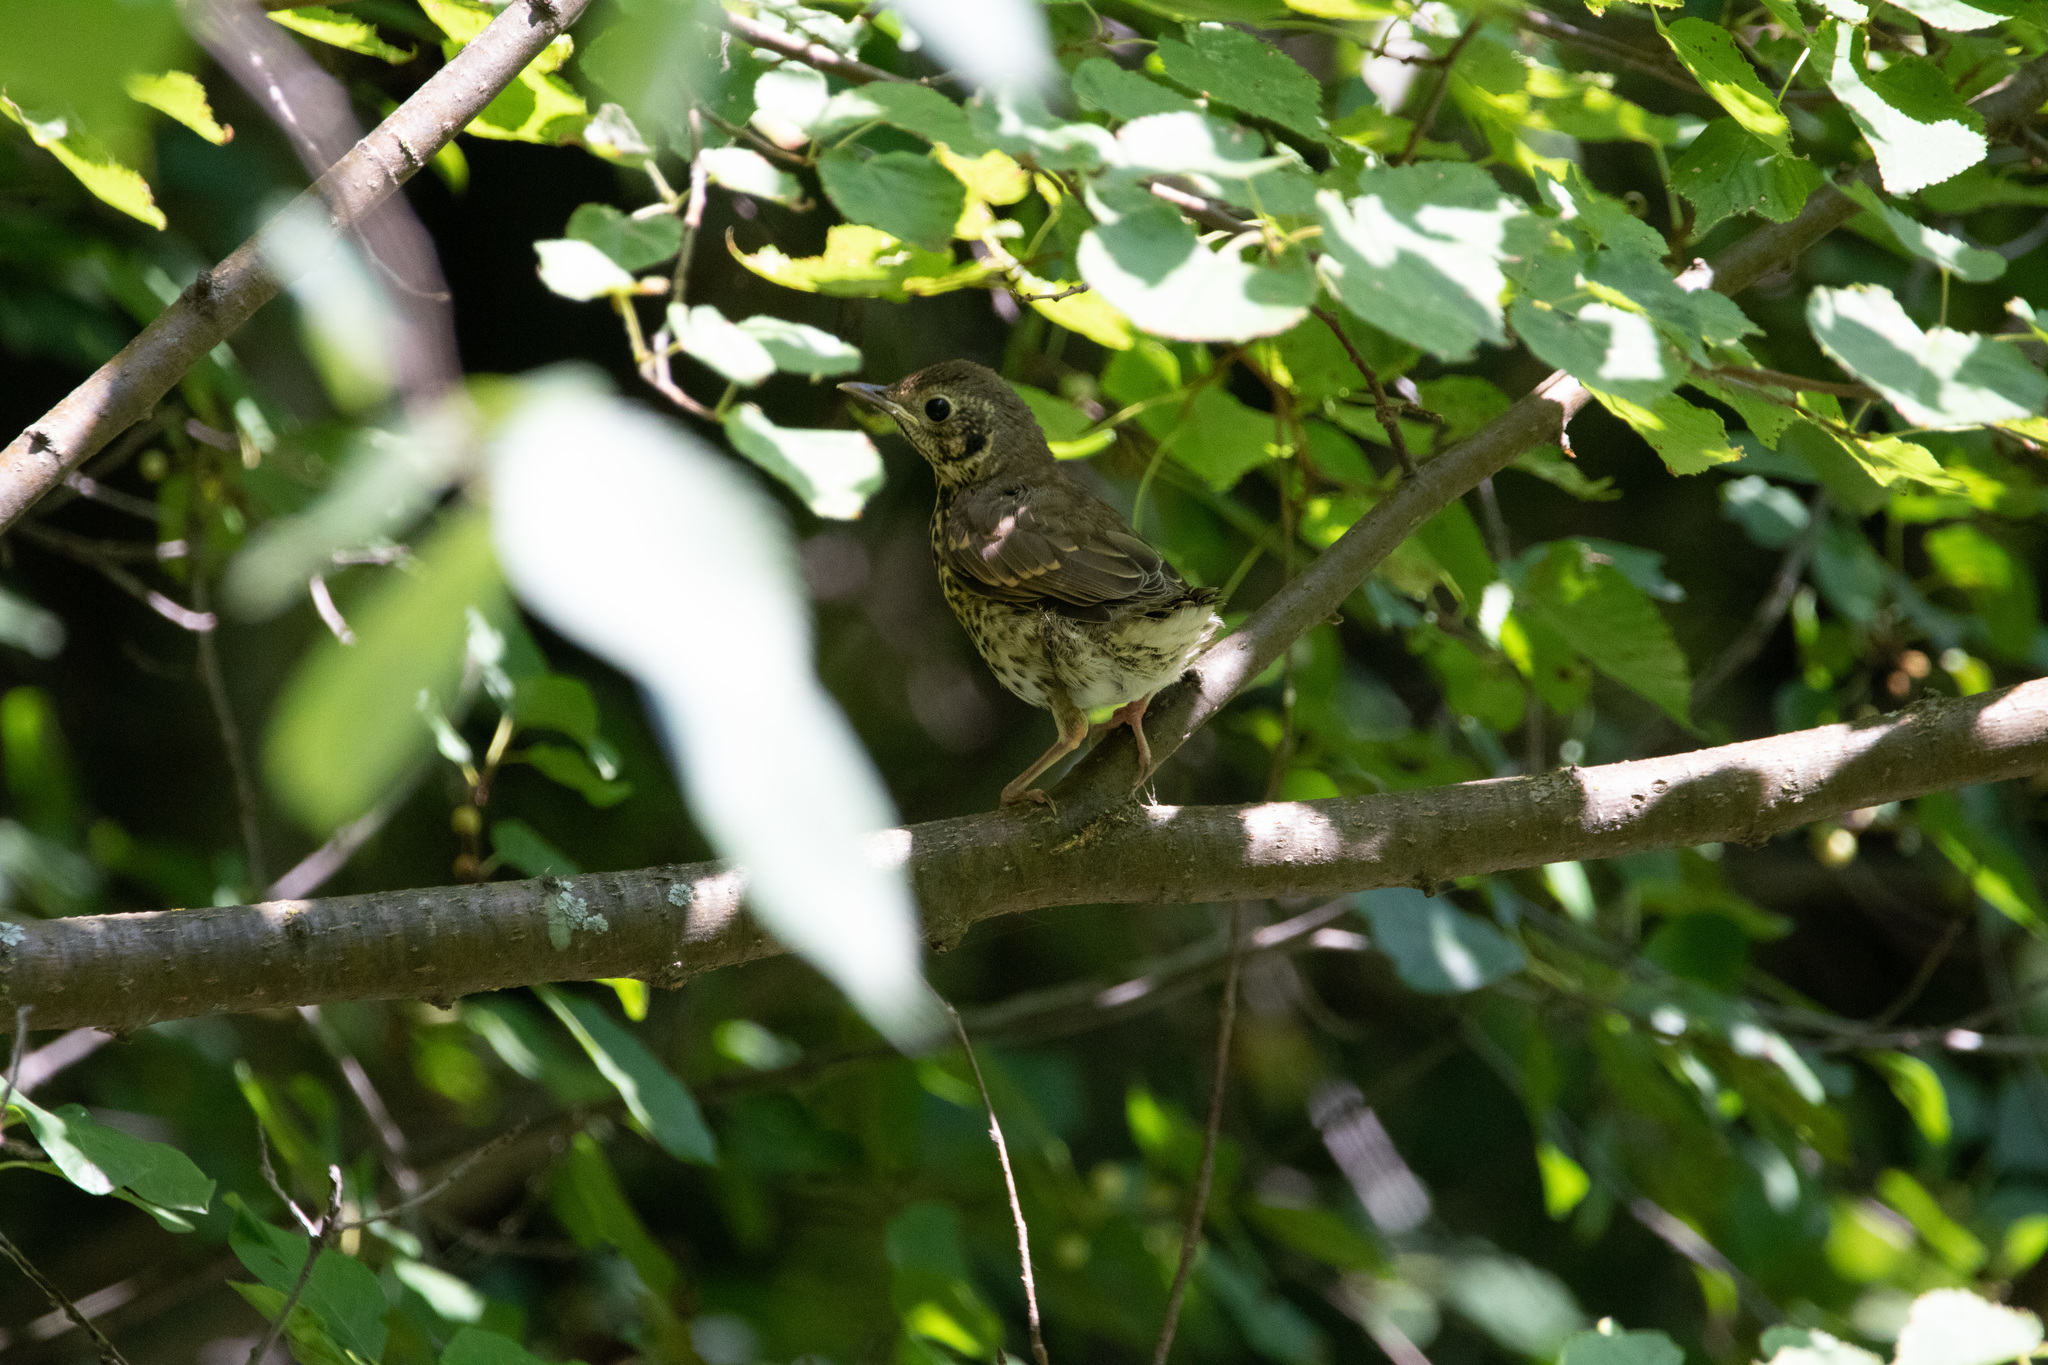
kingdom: Animalia
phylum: Chordata
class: Aves
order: Passeriformes
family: Turdidae
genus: Turdus
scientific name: Turdus philomelos
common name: Song thrush
